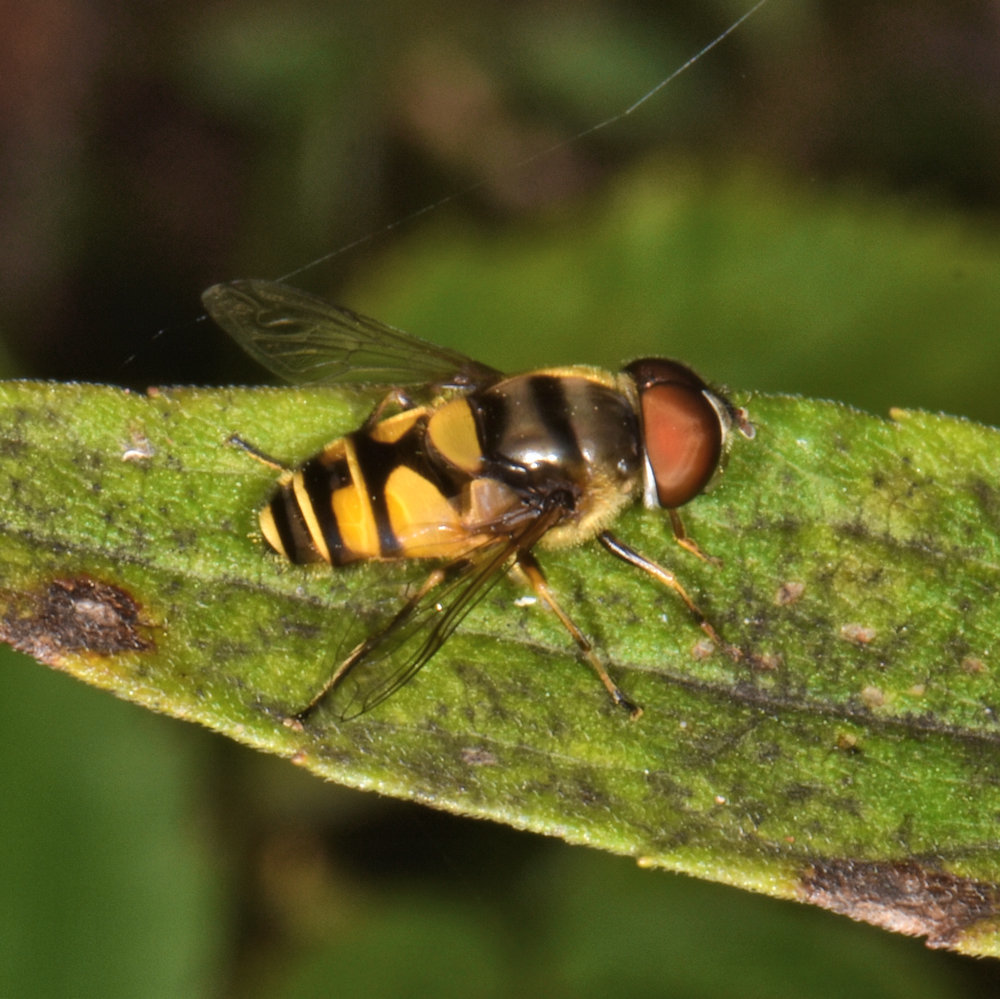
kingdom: Animalia
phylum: Arthropoda
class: Insecta
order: Diptera
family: Syrphidae
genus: Eristalis
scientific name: Eristalis transversa
